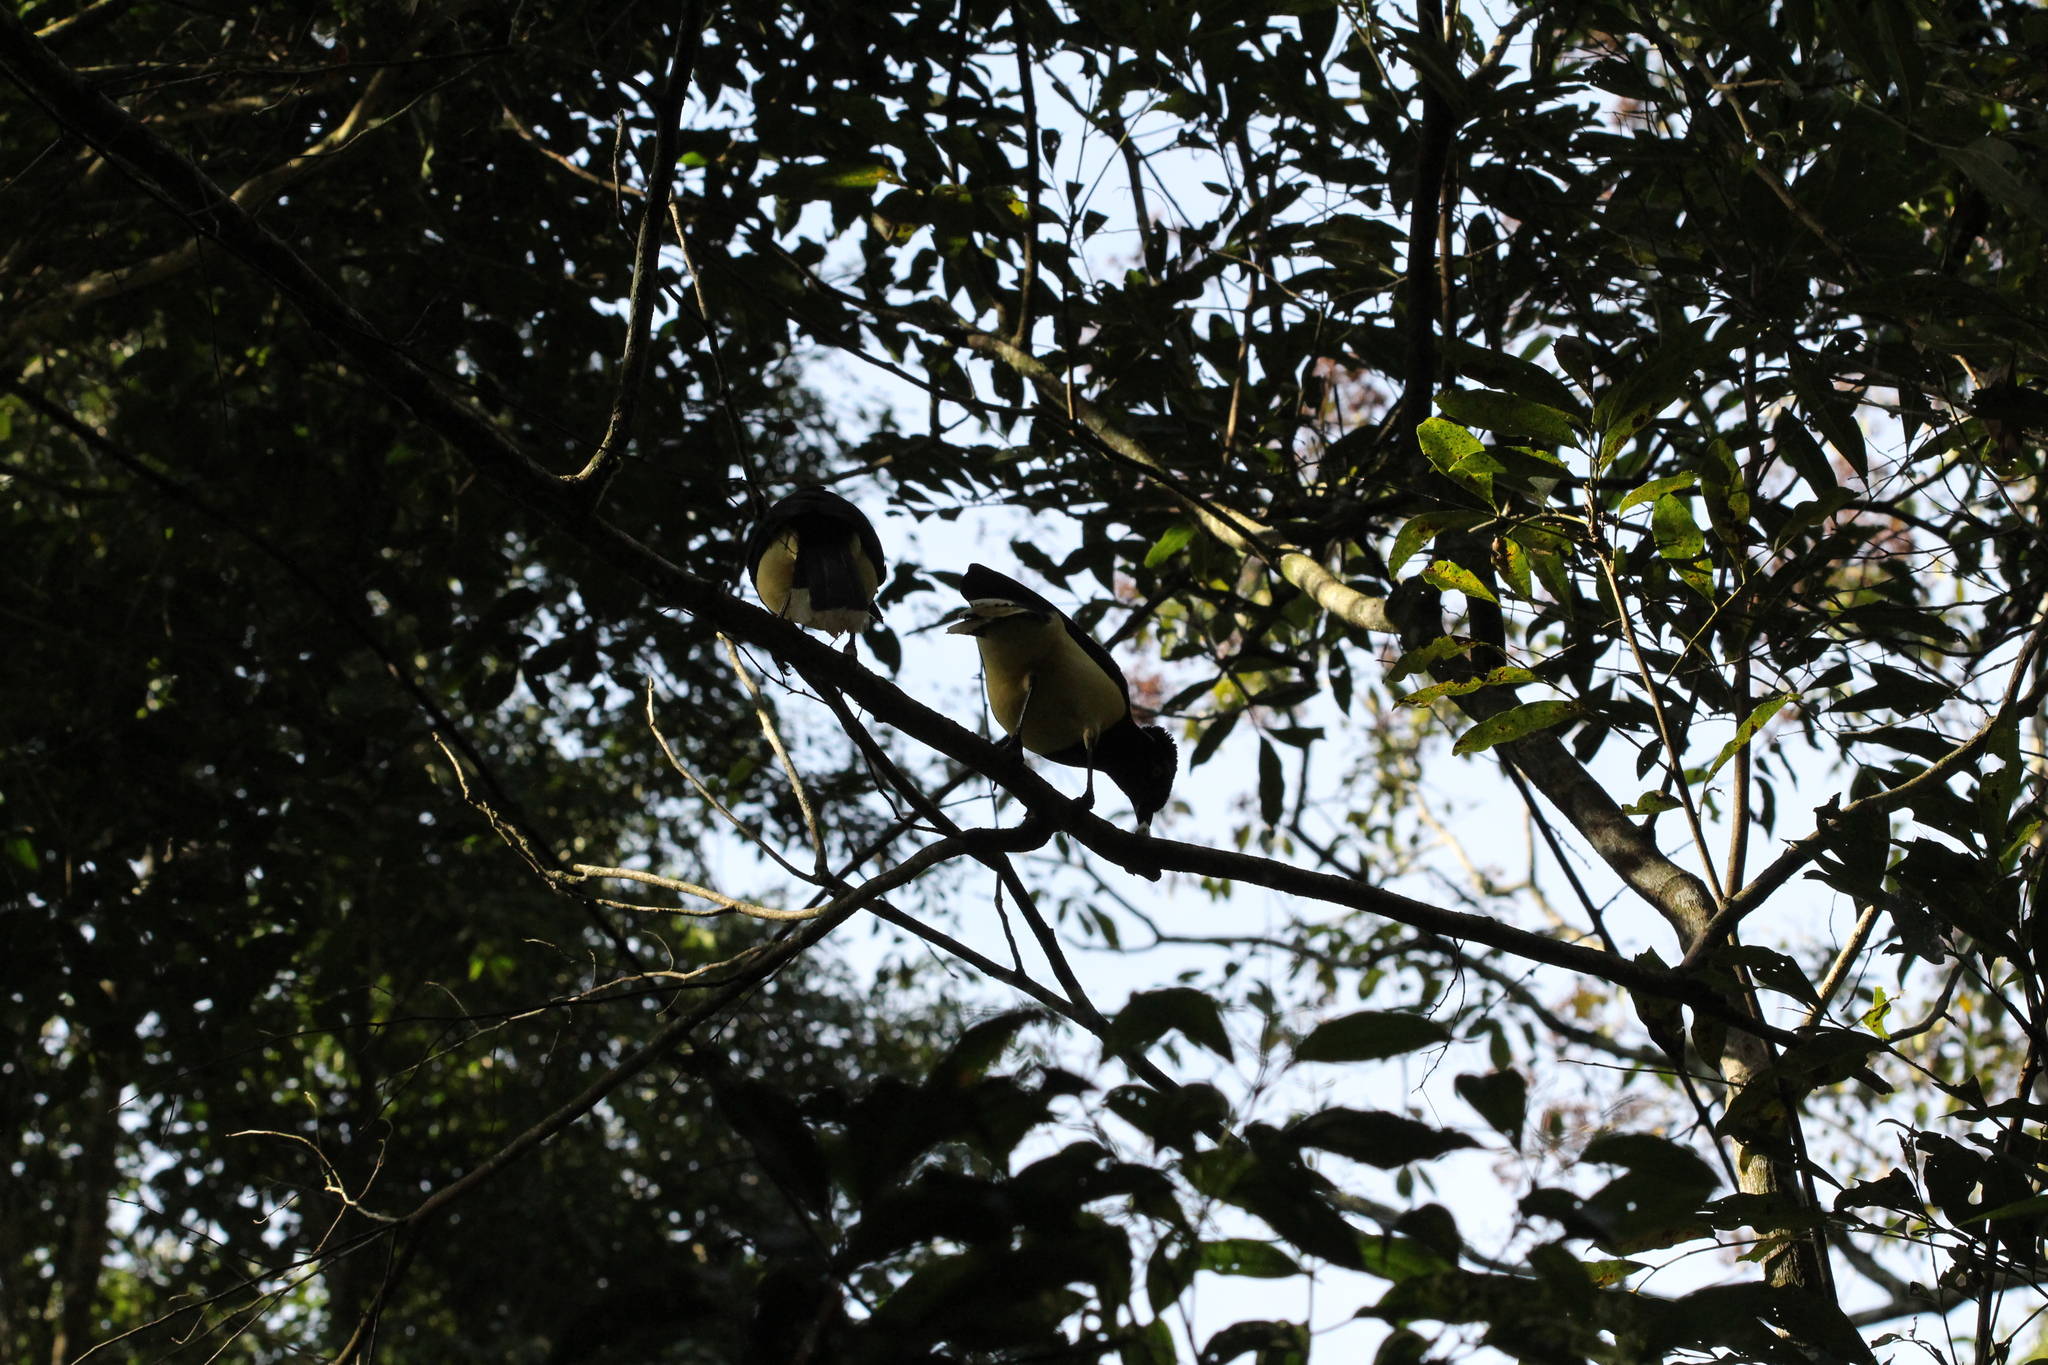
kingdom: Animalia
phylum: Chordata
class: Aves
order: Passeriformes
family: Corvidae
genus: Cyanocorax
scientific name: Cyanocorax chrysops
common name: Plush-crested jay
